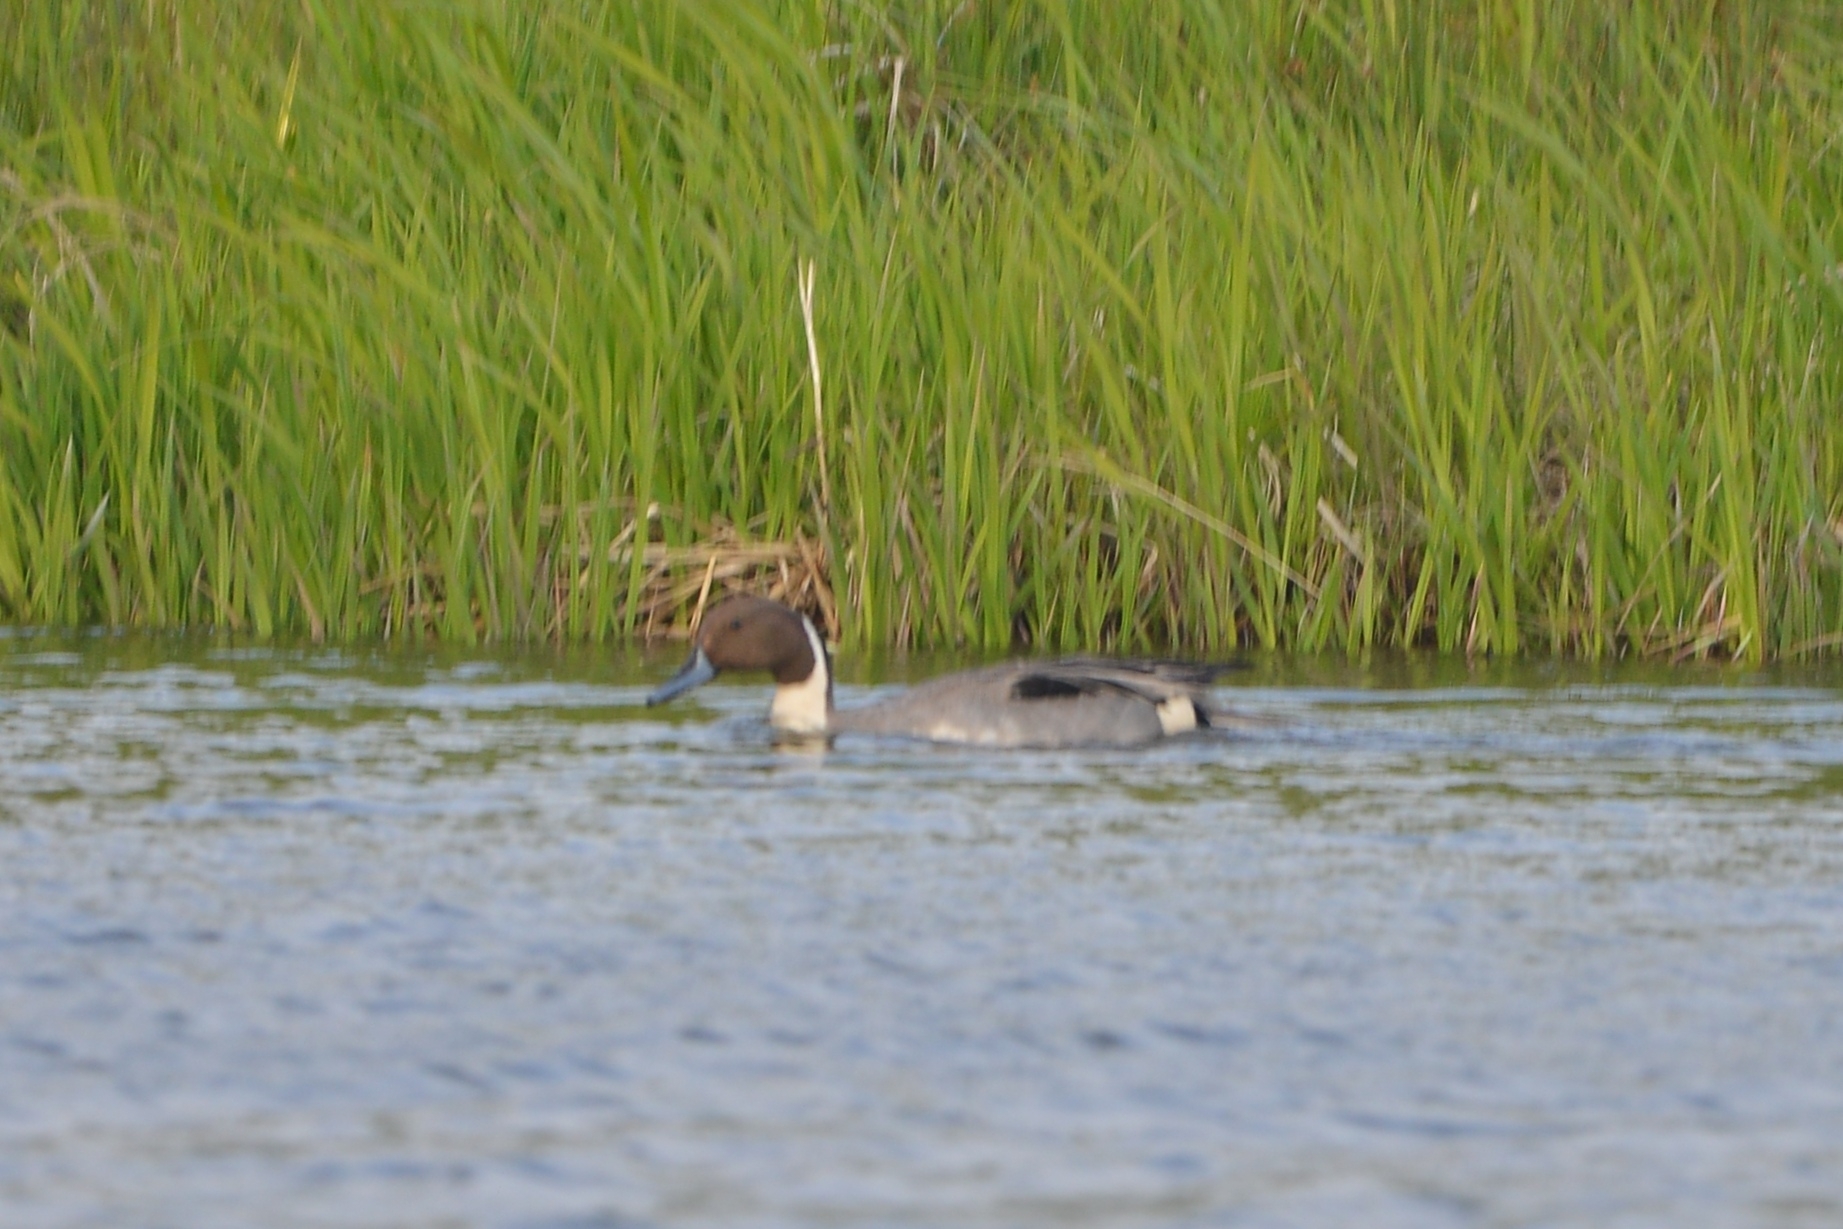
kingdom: Animalia
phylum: Chordata
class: Aves
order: Anseriformes
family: Anatidae
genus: Anas
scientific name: Anas acuta
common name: Northern pintail
